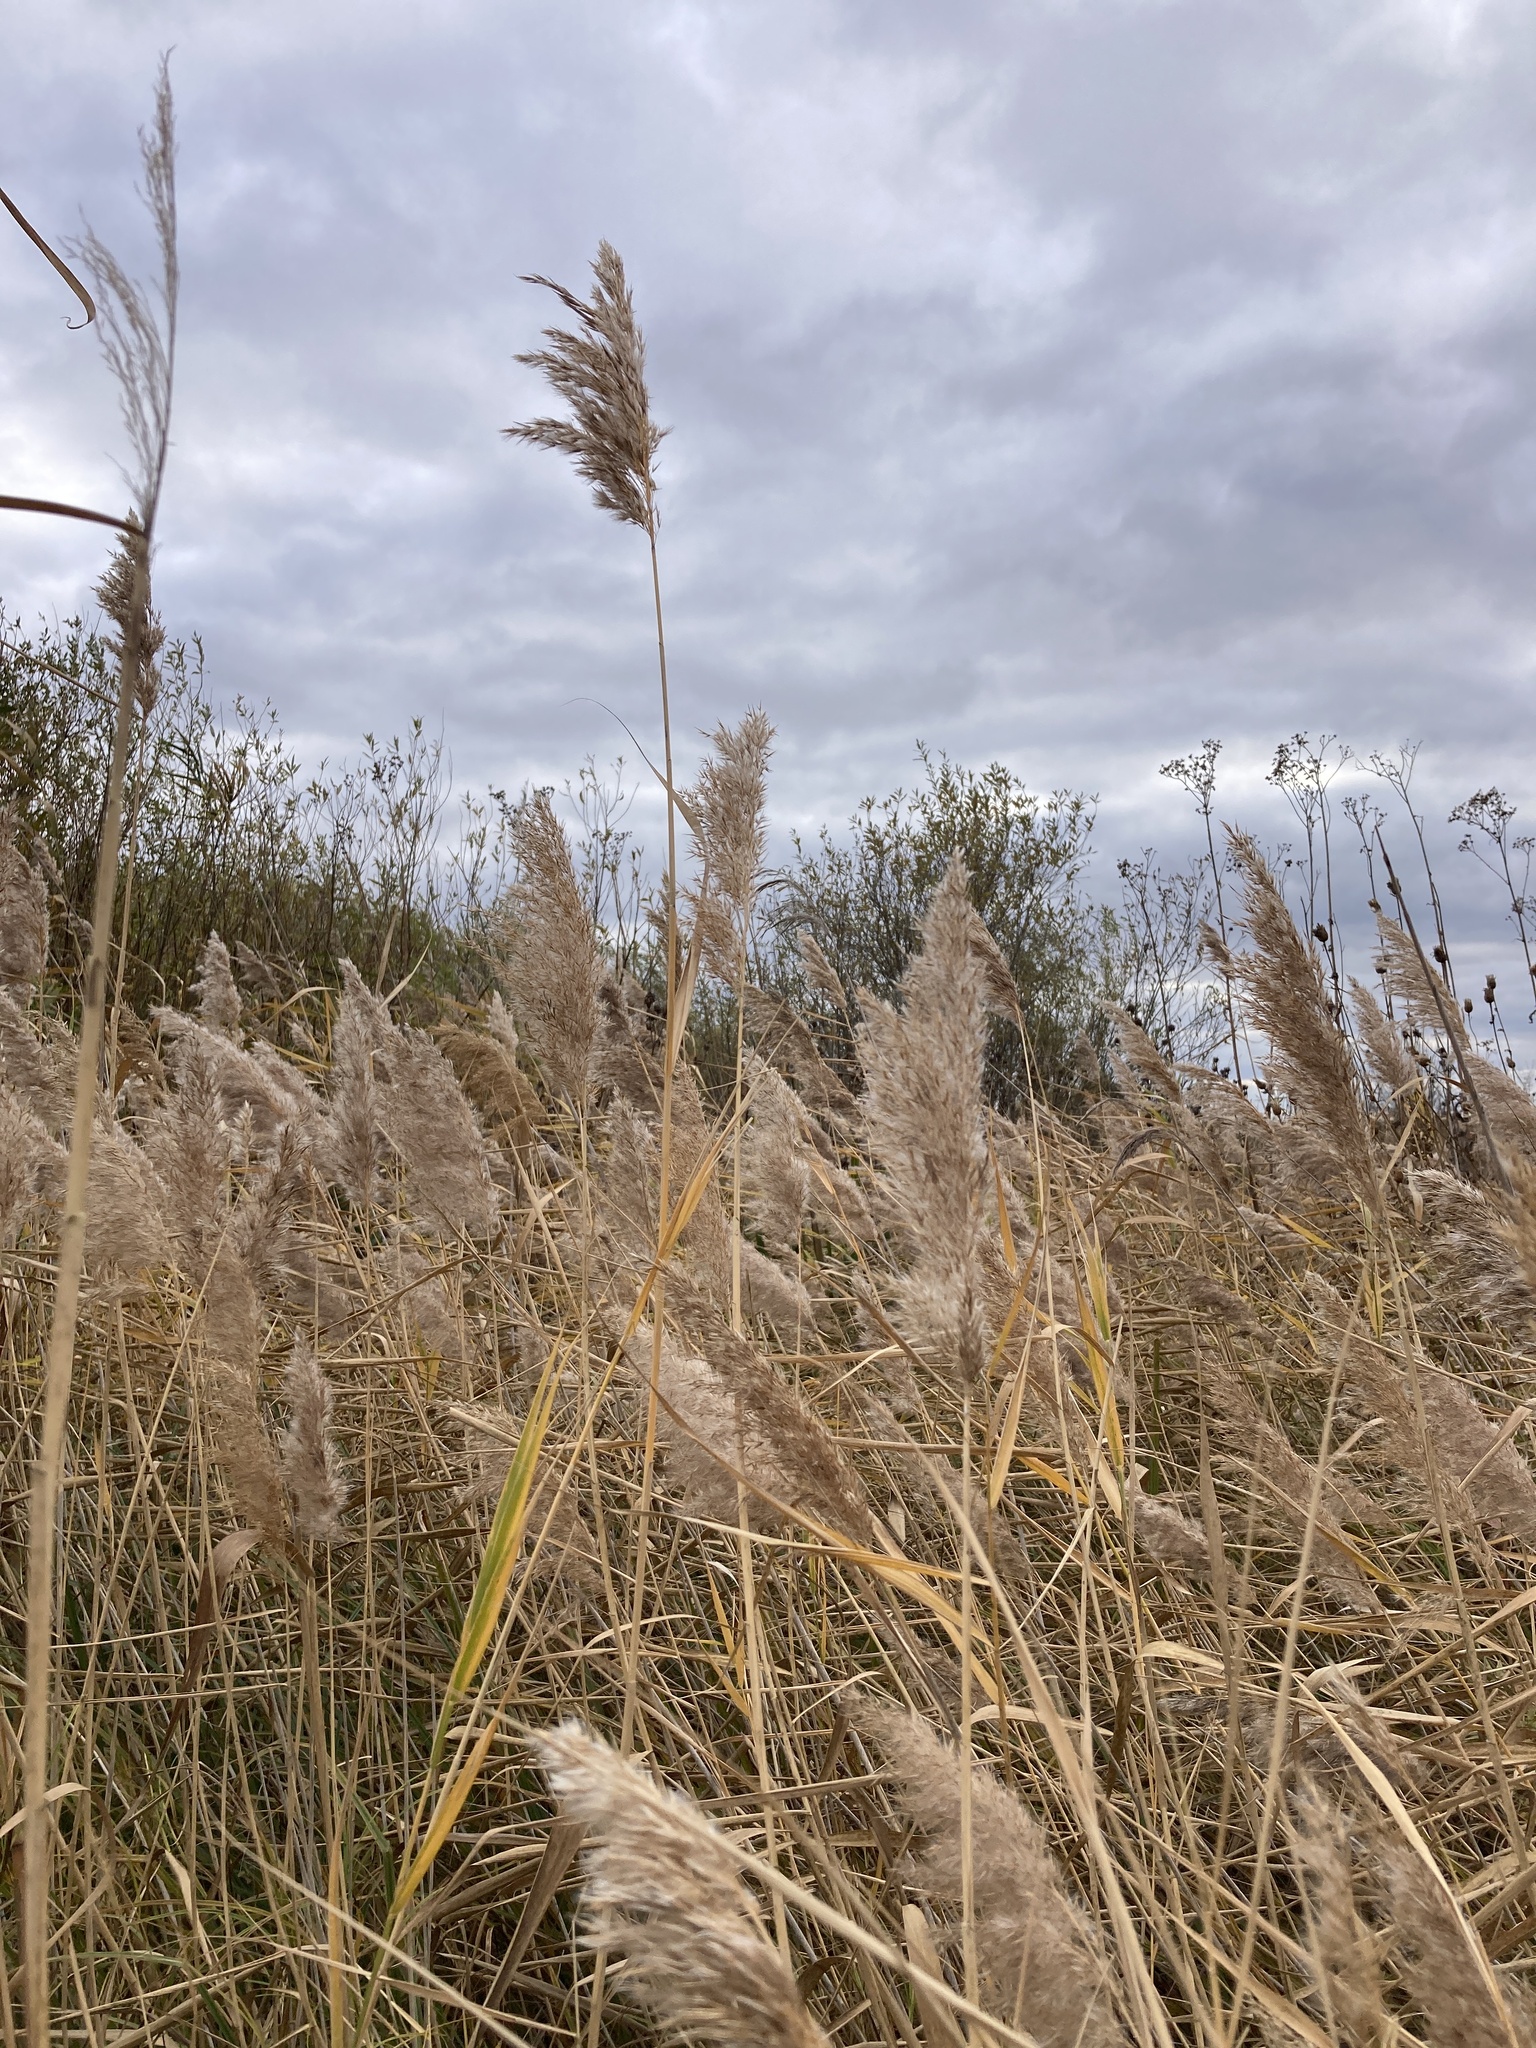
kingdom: Plantae
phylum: Tracheophyta
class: Liliopsida
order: Poales
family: Poaceae
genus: Phragmites
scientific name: Phragmites australis
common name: Common reed
